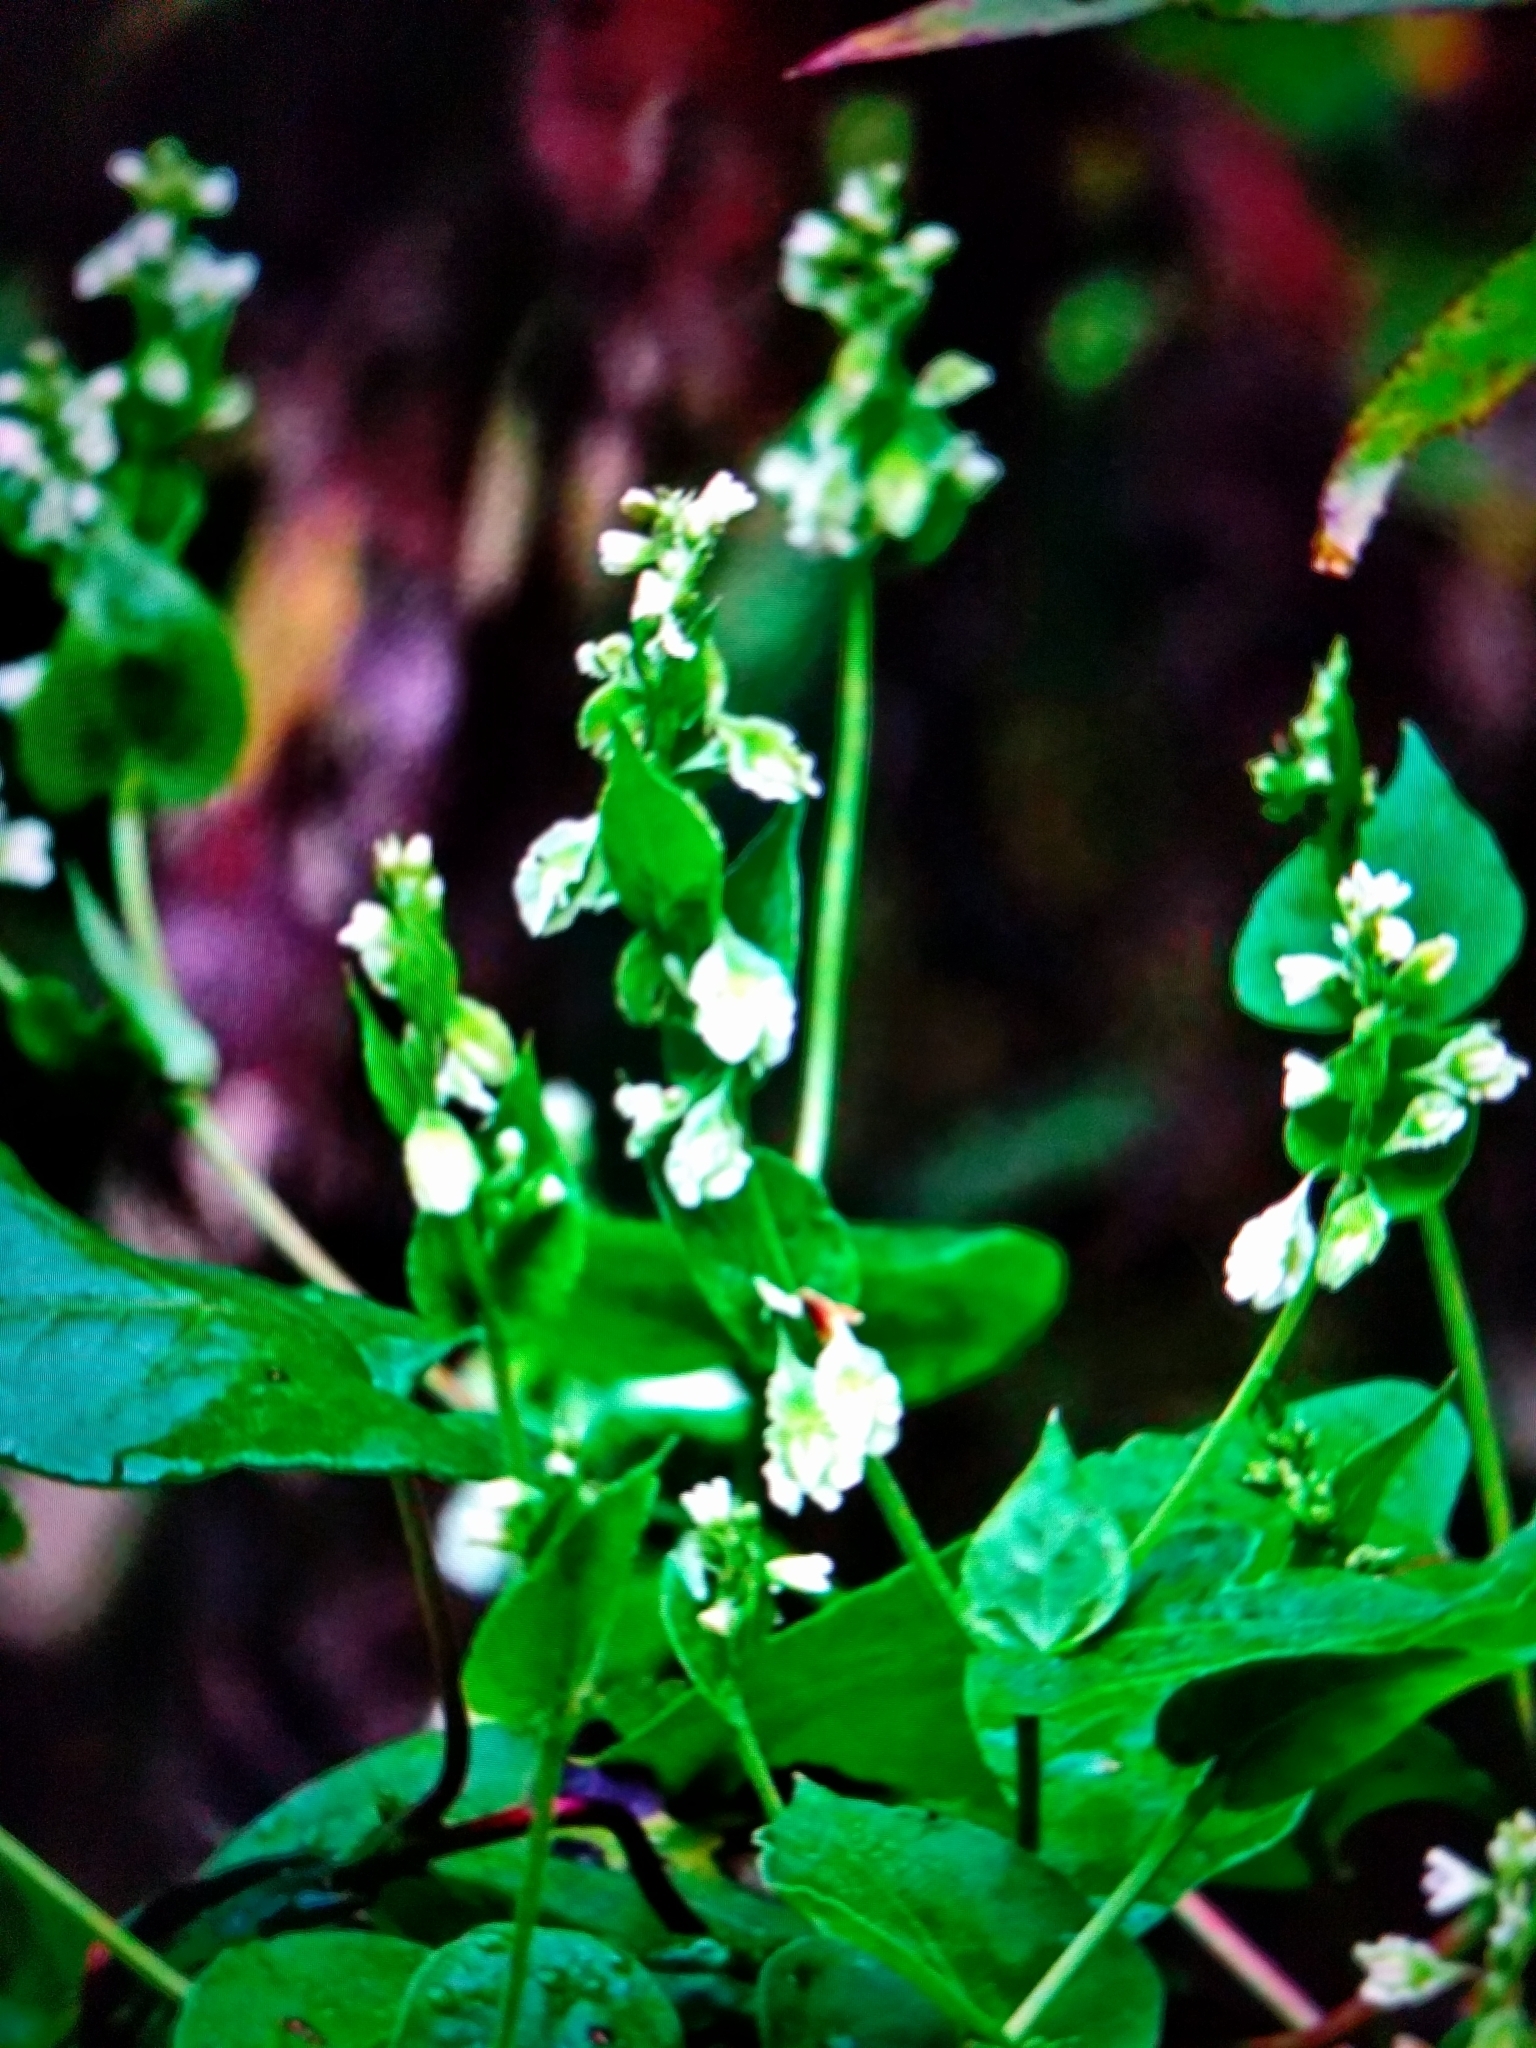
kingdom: Plantae
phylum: Tracheophyta
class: Magnoliopsida
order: Caryophyllales
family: Polygonaceae
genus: Fallopia
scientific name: Fallopia scandens
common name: Climbing false buckwheat
